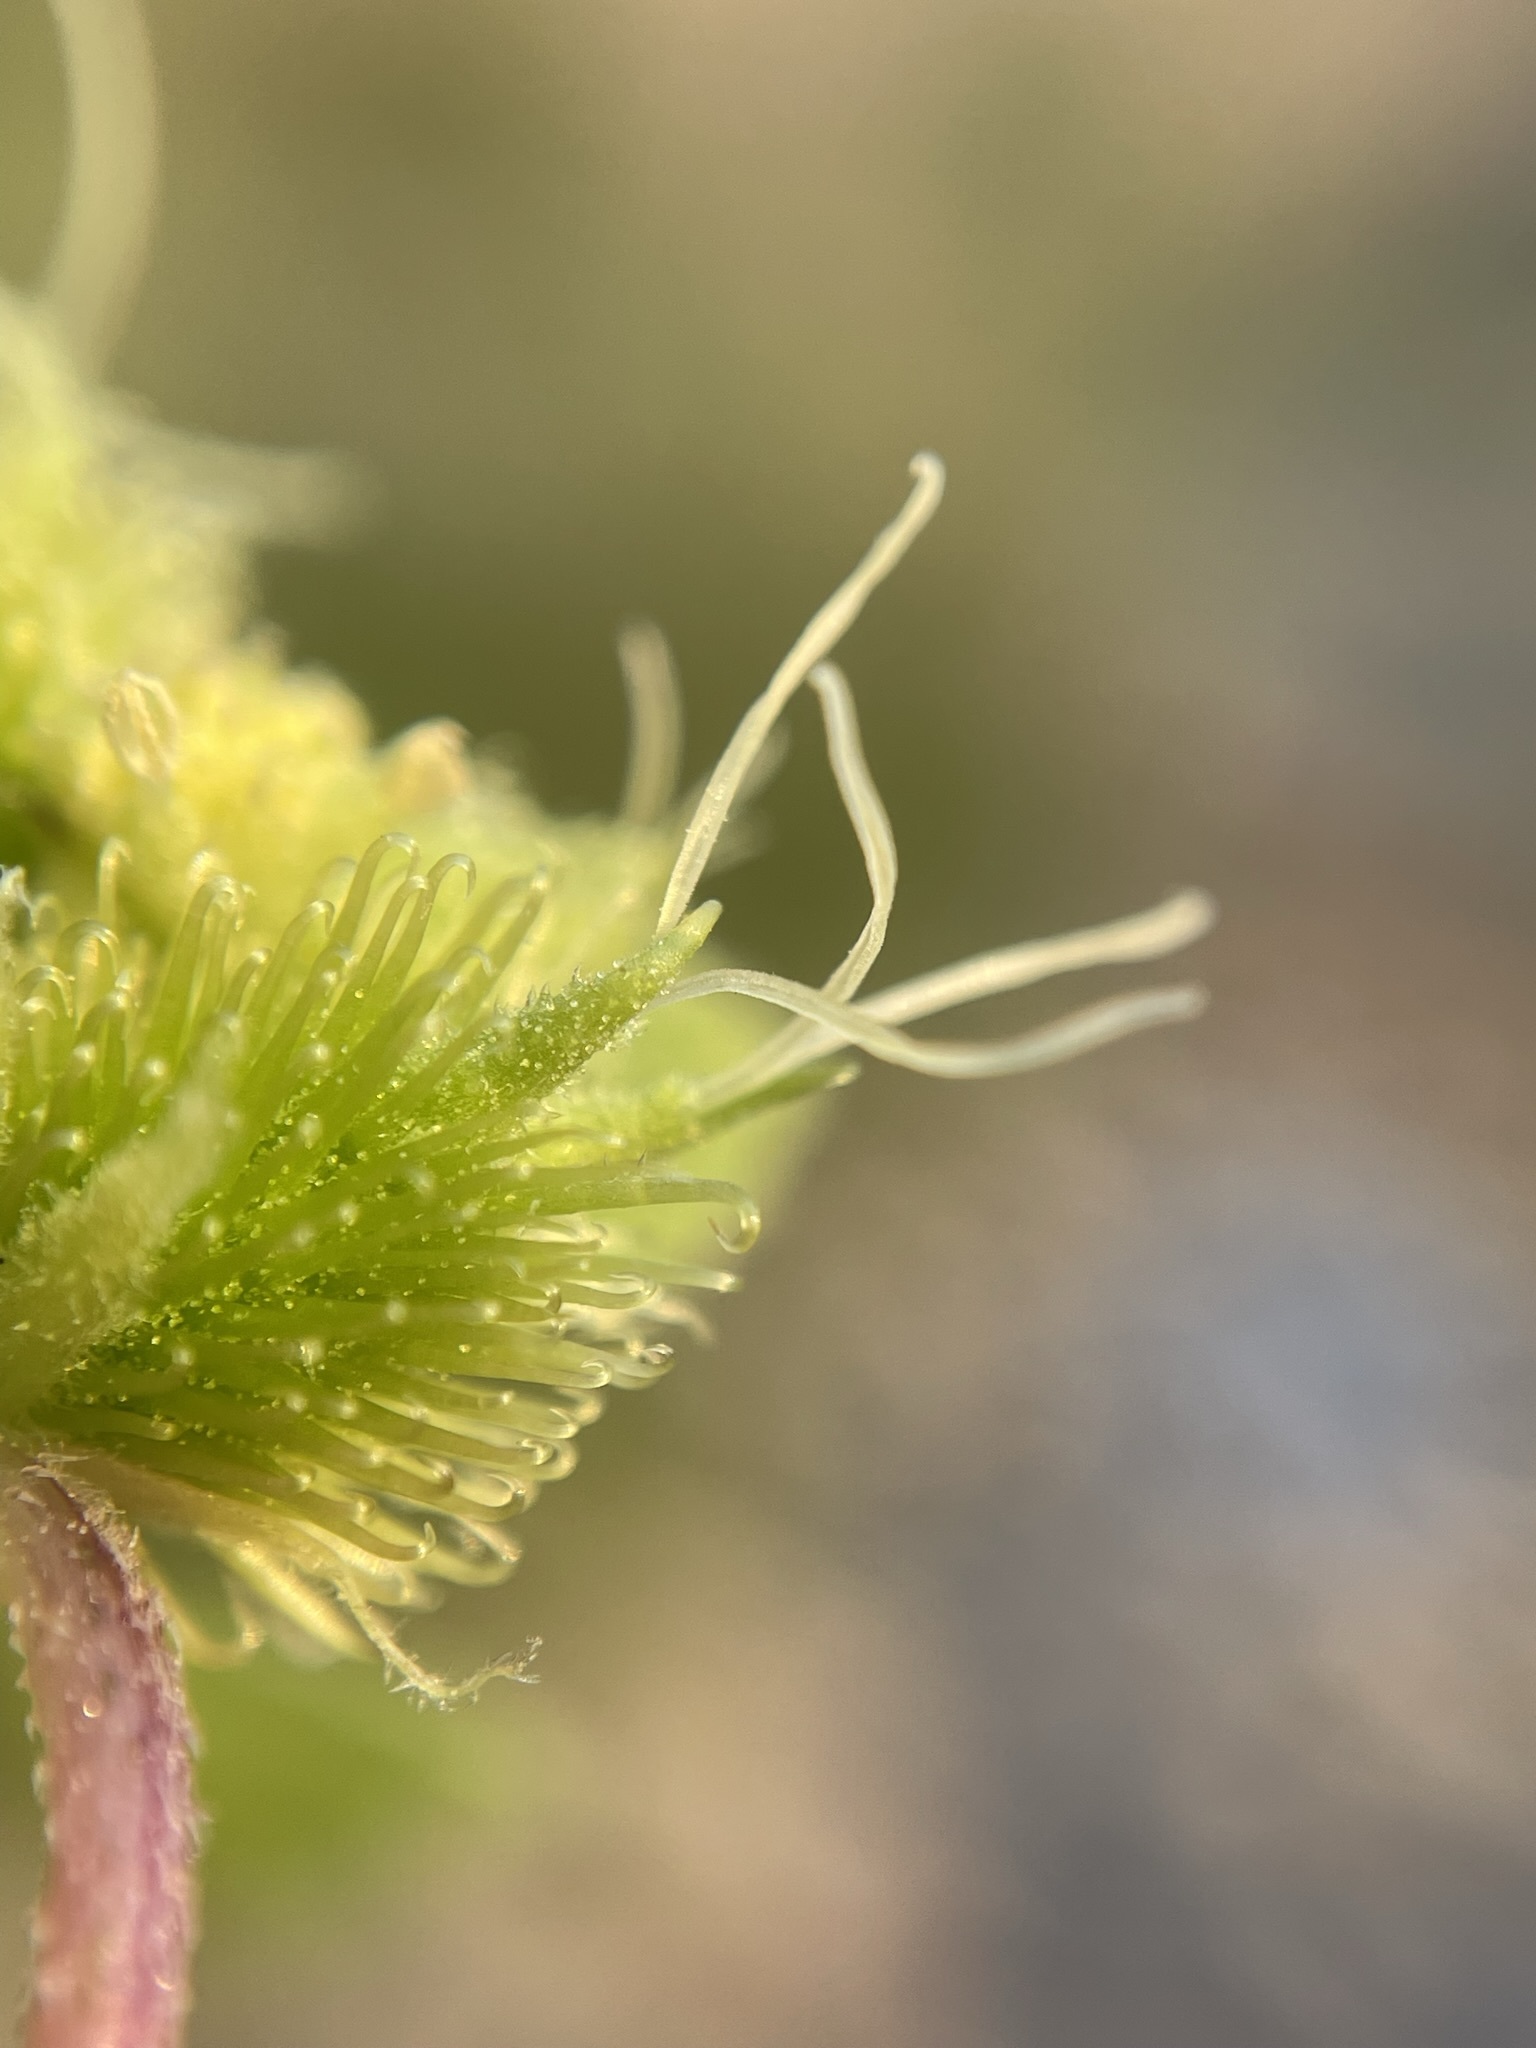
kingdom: Plantae
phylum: Tracheophyta
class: Magnoliopsida
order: Asterales
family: Asteraceae
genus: Xanthium
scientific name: Xanthium strumarium
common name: Rough cocklebur
